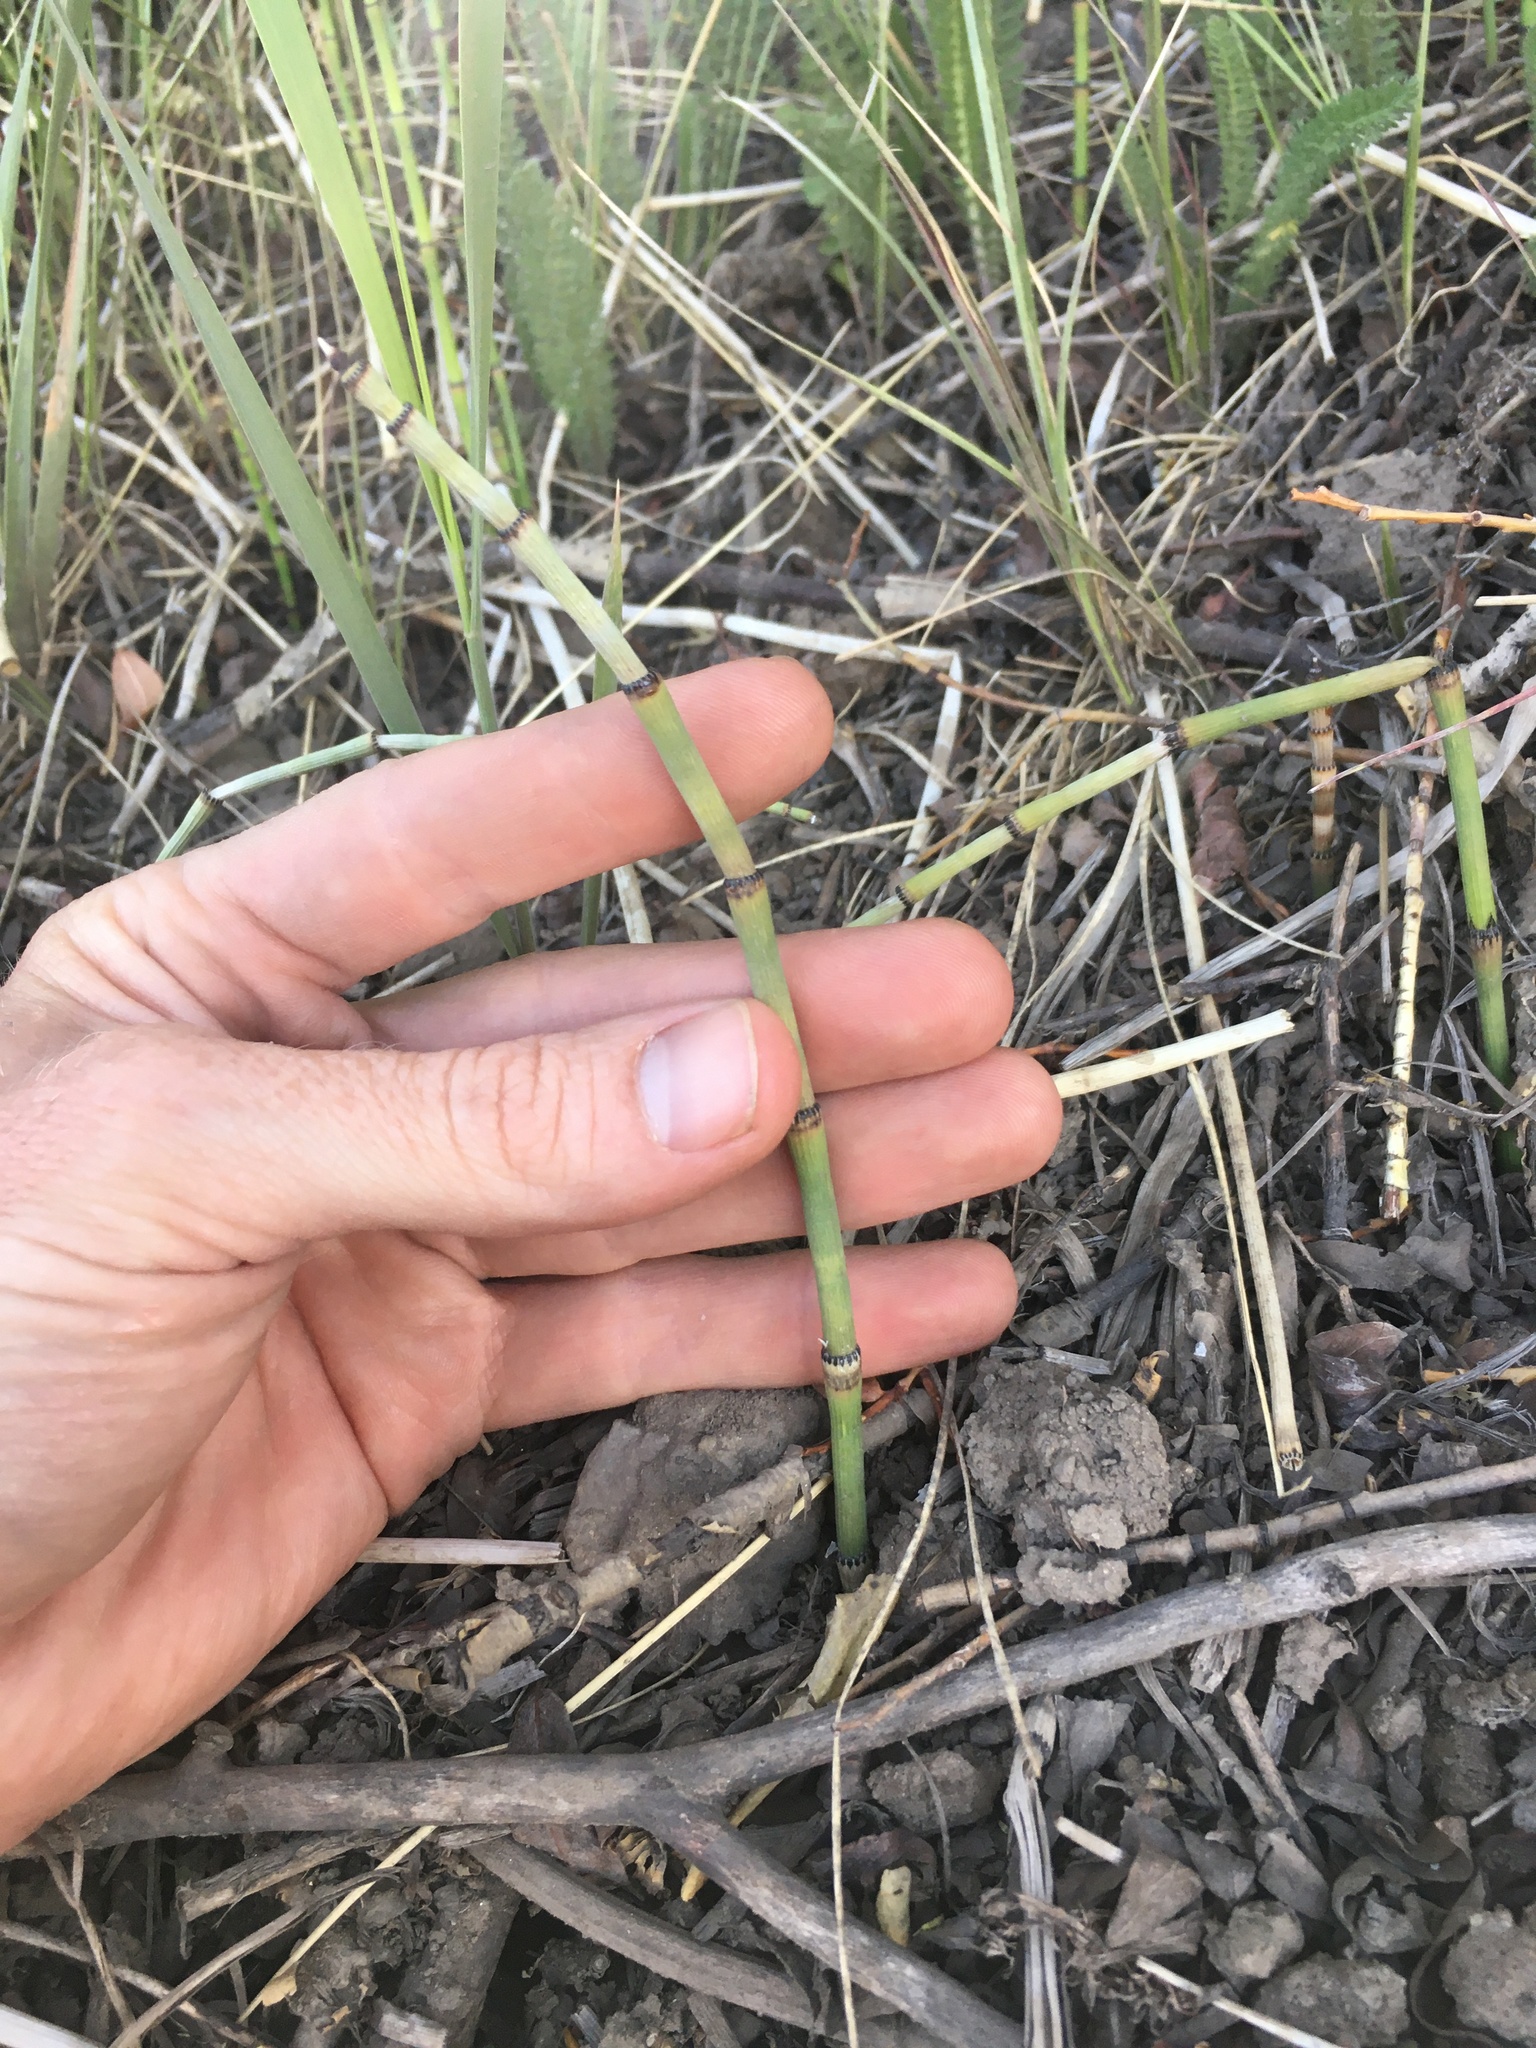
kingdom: Plantae
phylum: Tracheophyta
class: Polypodiopsida
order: Equisetales
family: Equisetaceae
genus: Equisetum
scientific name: Equisetum laevigatum
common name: Smooth scouring-rush
